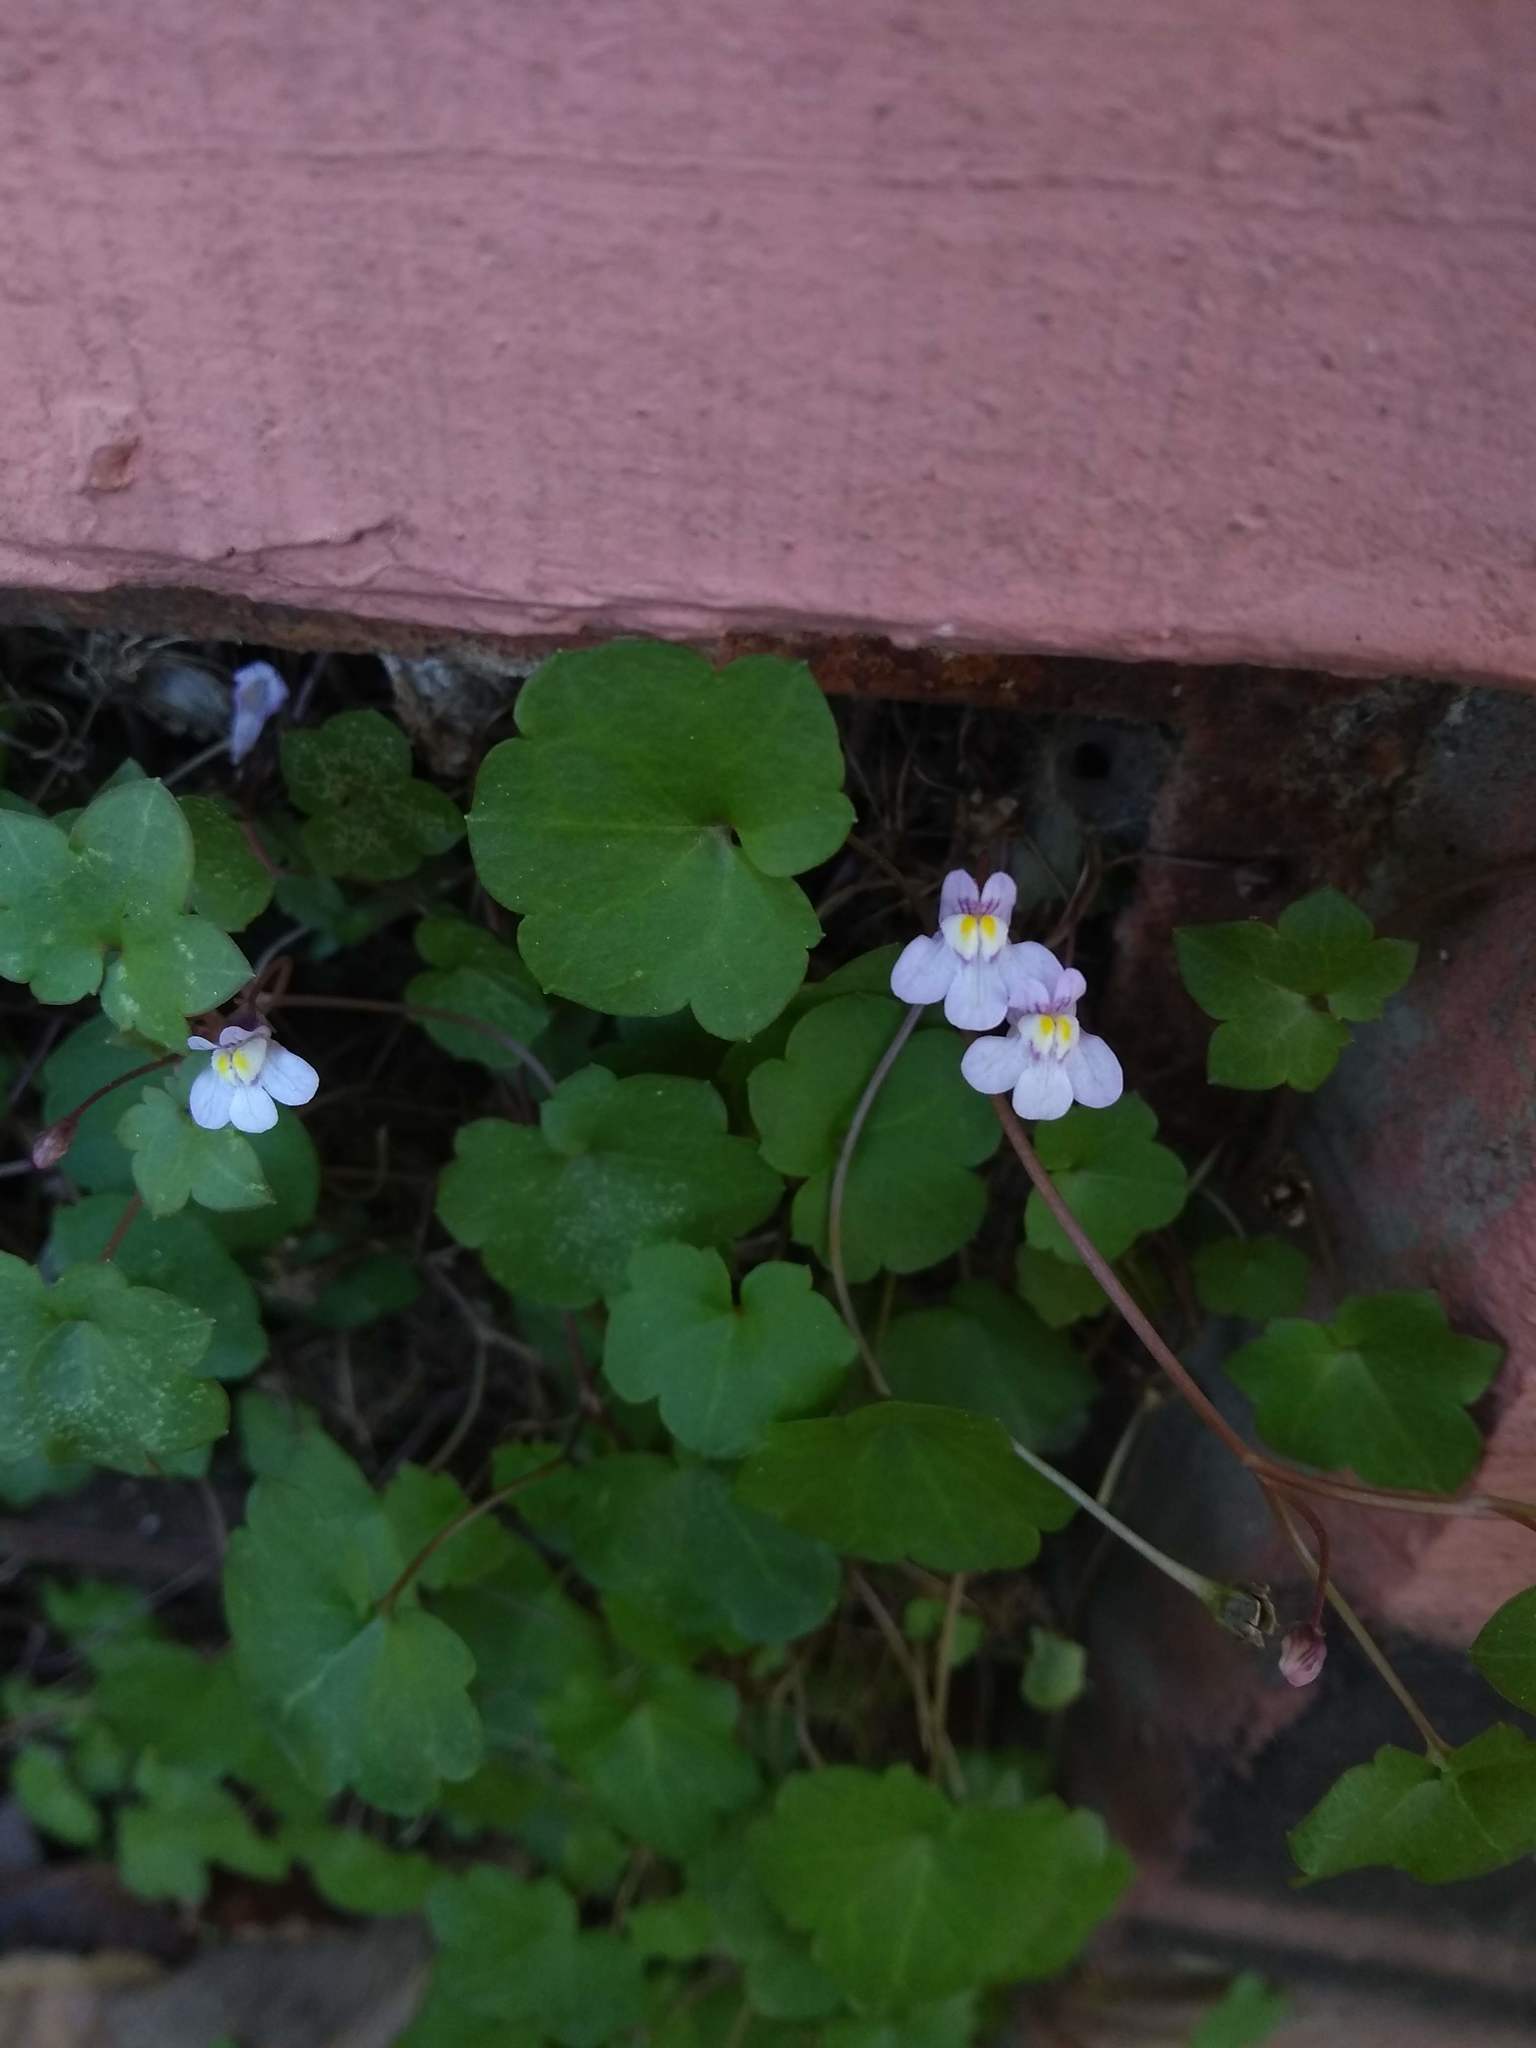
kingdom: Plantae
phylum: Tracheophyta
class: Magnoliopsida
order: Lamiales
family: Plantaginaceae
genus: Cymbalaria
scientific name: Cymbalaria muralis
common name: Ivy-leaved toadflax
